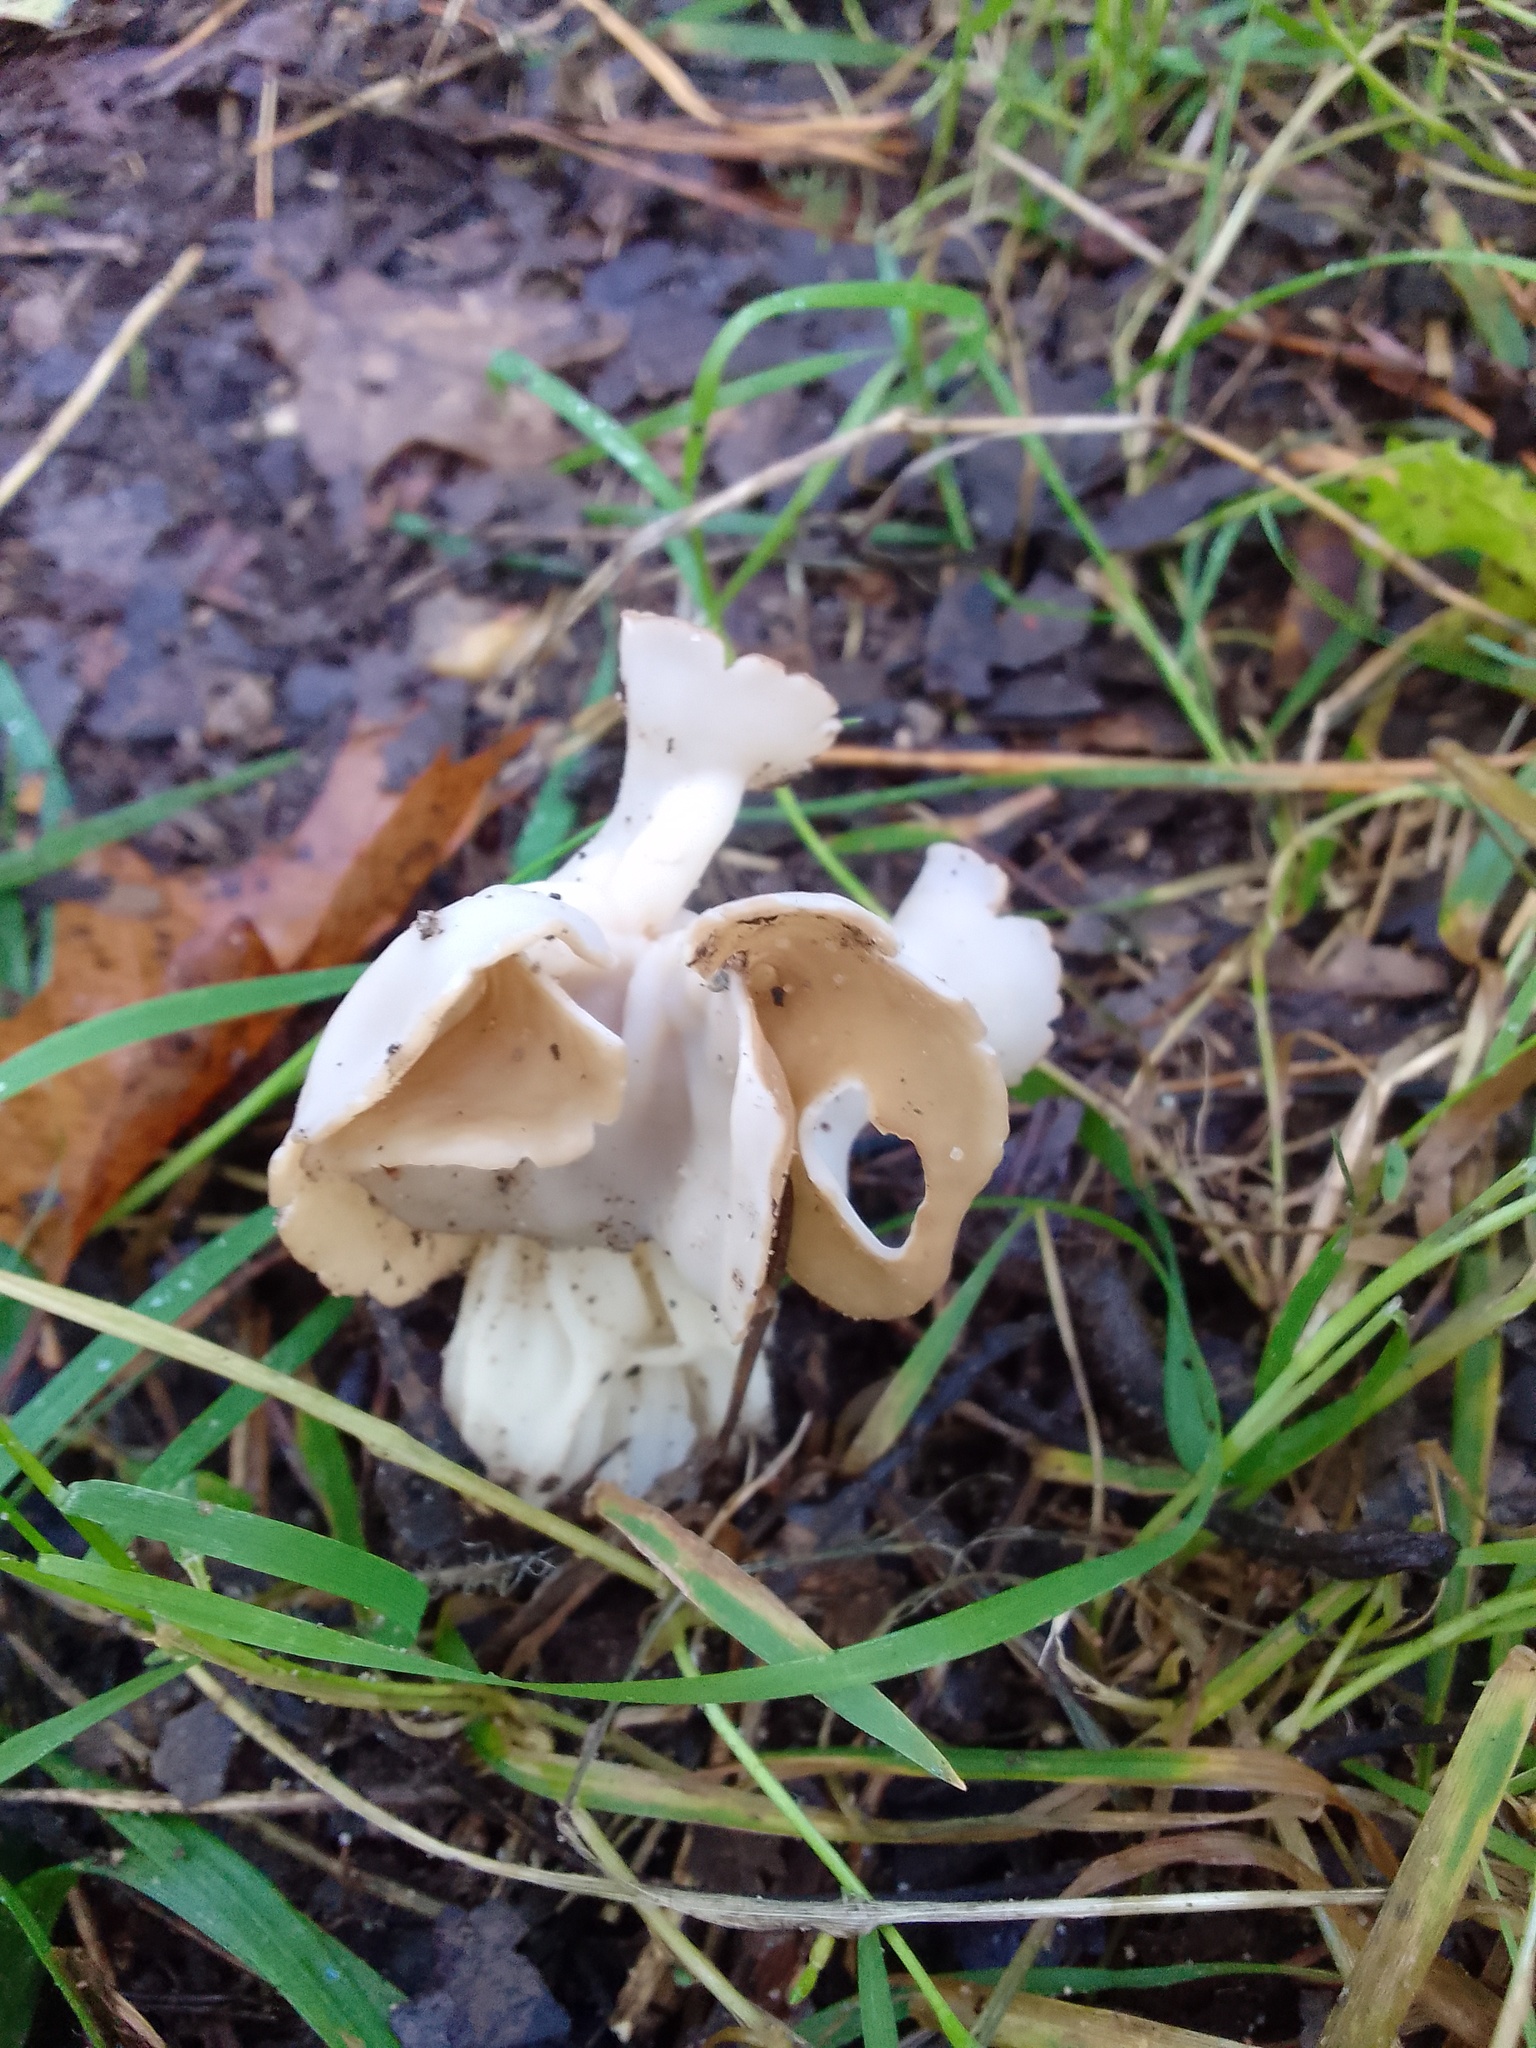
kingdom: Fungi
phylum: Ascomycota
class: Pezizomycetes
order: Pezizales
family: Helvellaceae
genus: Helvella
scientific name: Helvella crispa
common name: White saddle
